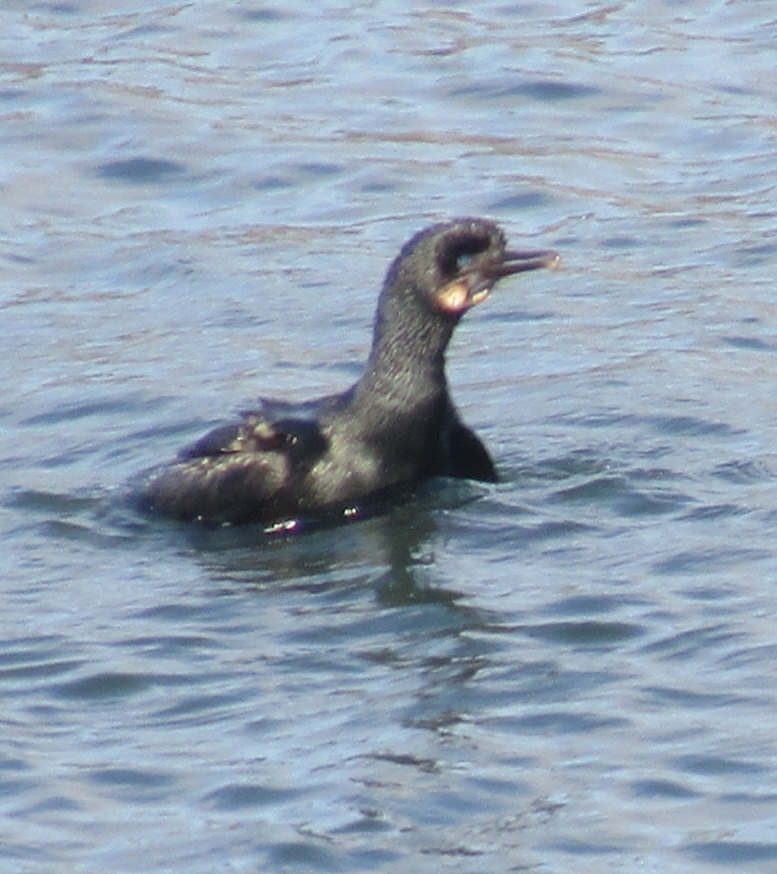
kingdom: Animalia
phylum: Chordata
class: Aves
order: Suliformes
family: Phalacrocoracidae
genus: Urile
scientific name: Urile penicillatus
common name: Brandt's cormorant
